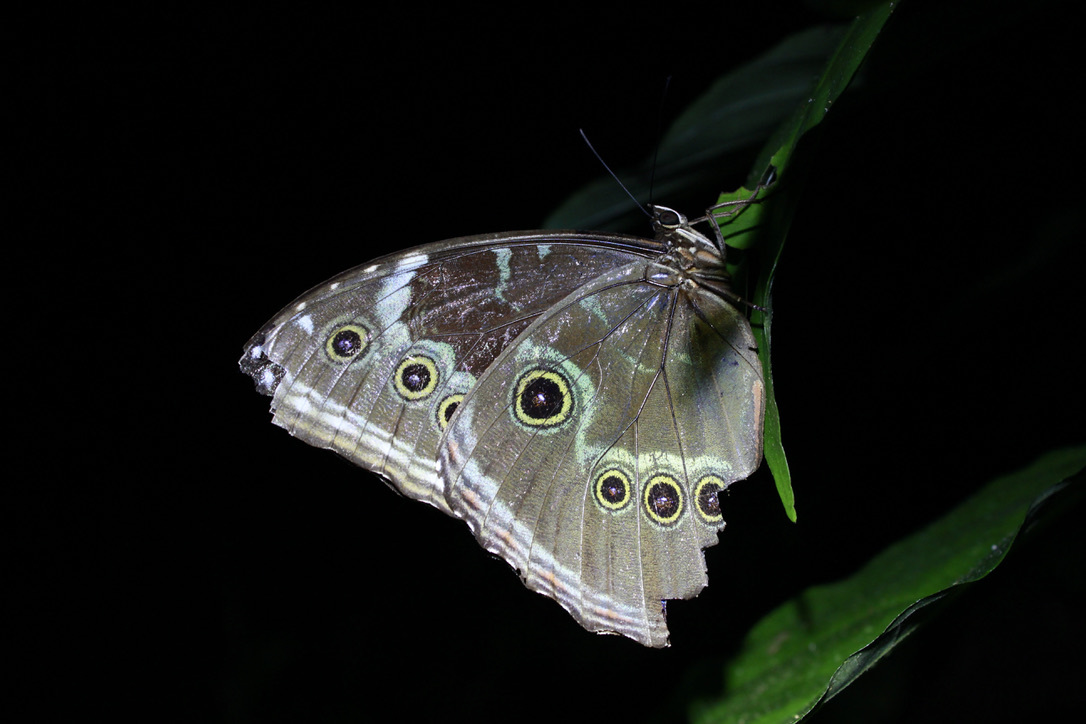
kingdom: Animalia
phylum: Arthropoda
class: Insecta
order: Lepidoptera
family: Nymphalidae
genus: Morpho
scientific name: Morpho helenor
